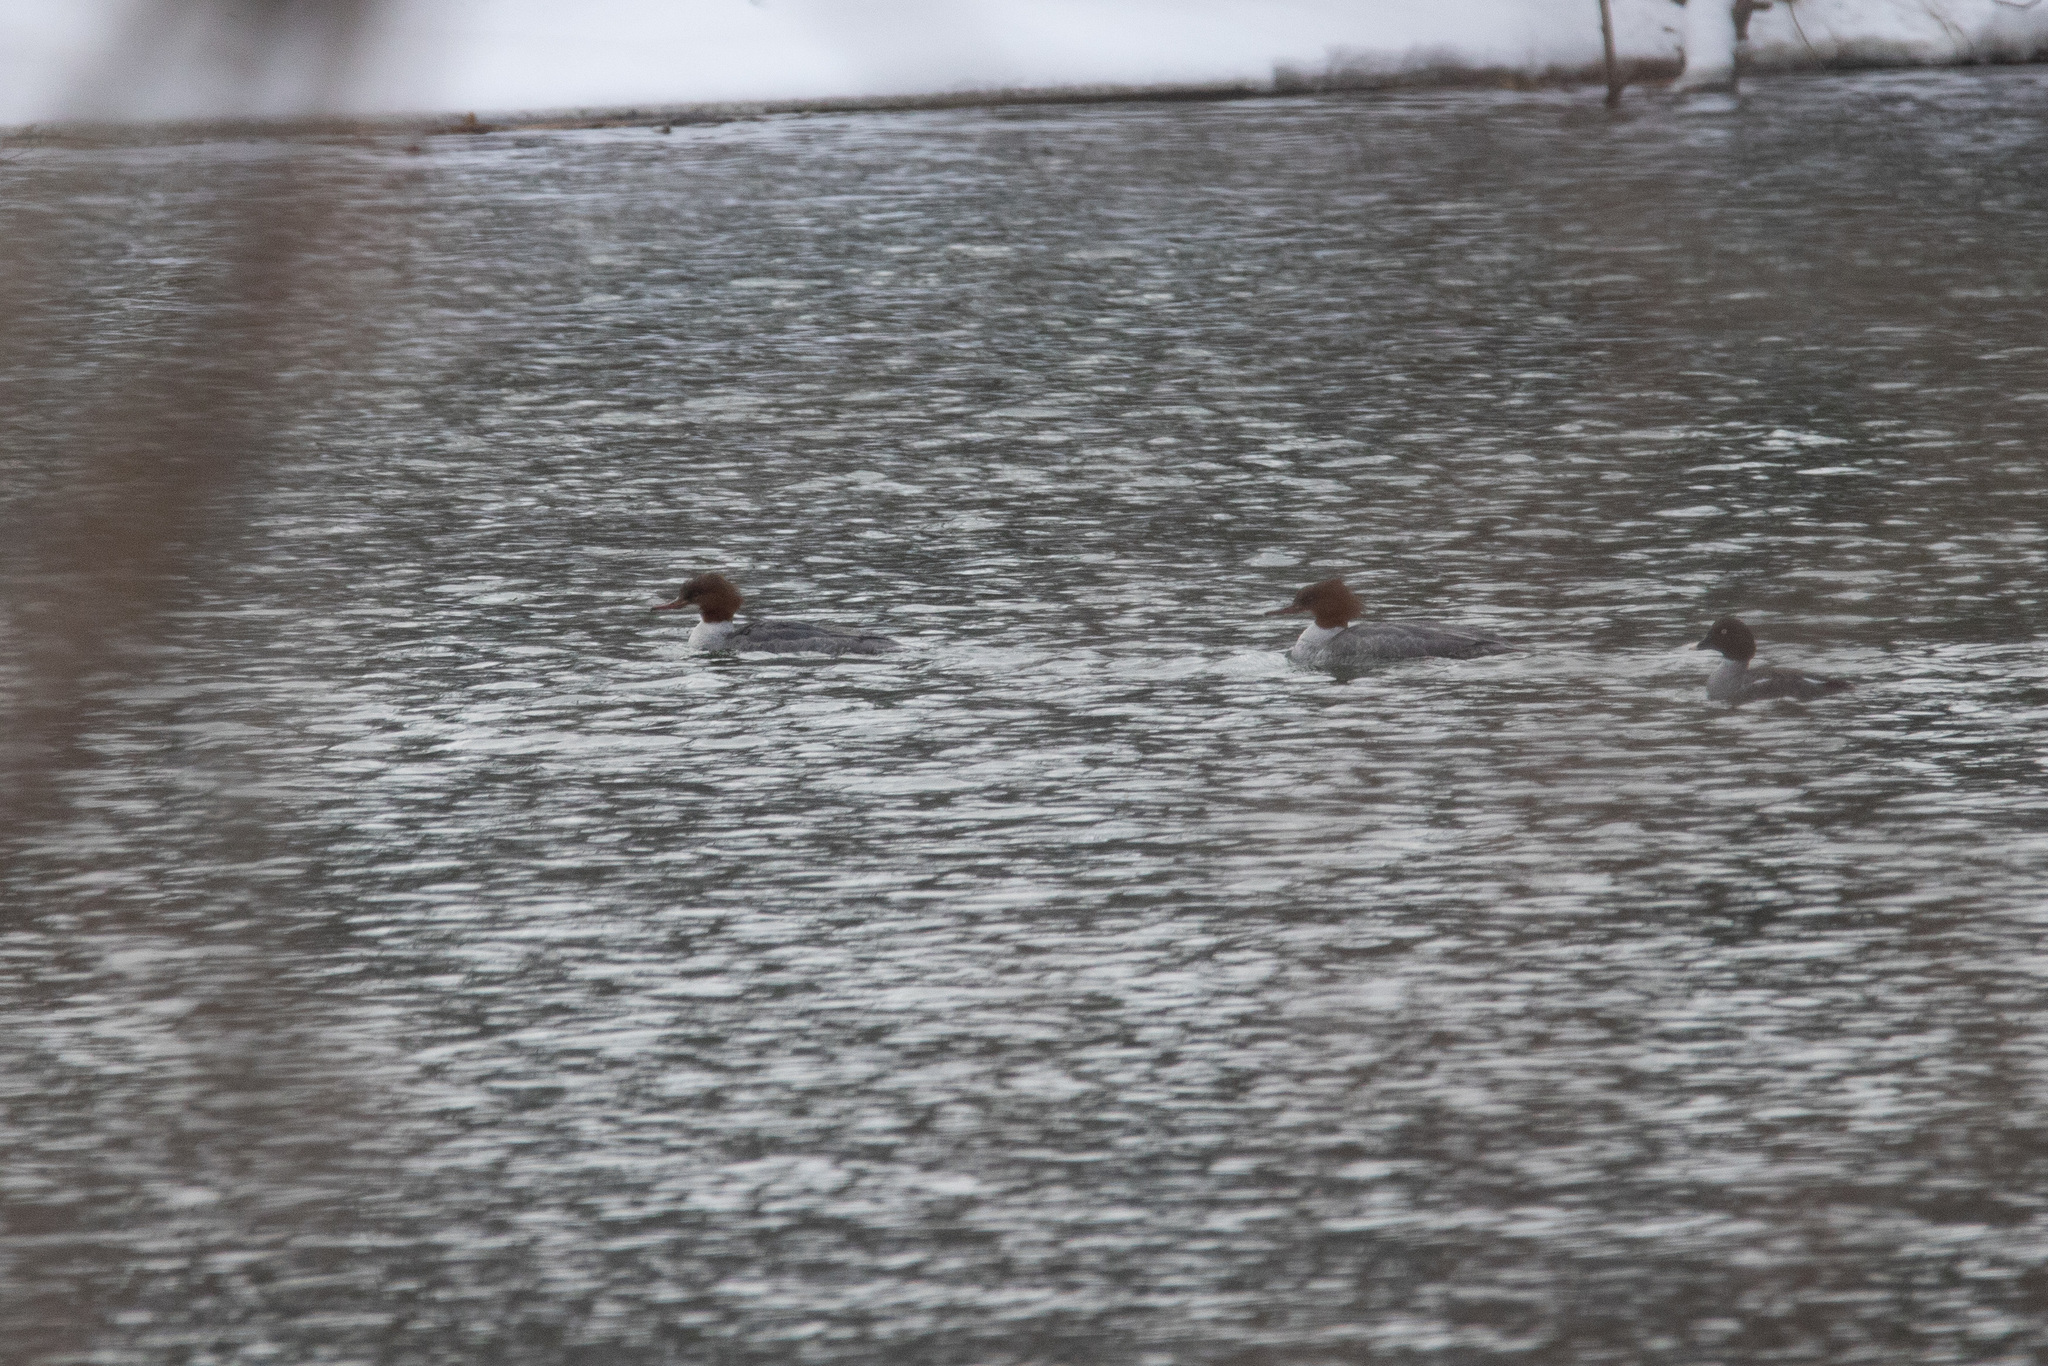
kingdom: Animalia
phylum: Chordata
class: Aves
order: Anseriformes
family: Anatidae
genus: Mergus
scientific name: Mergus merganser
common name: Common merganser
